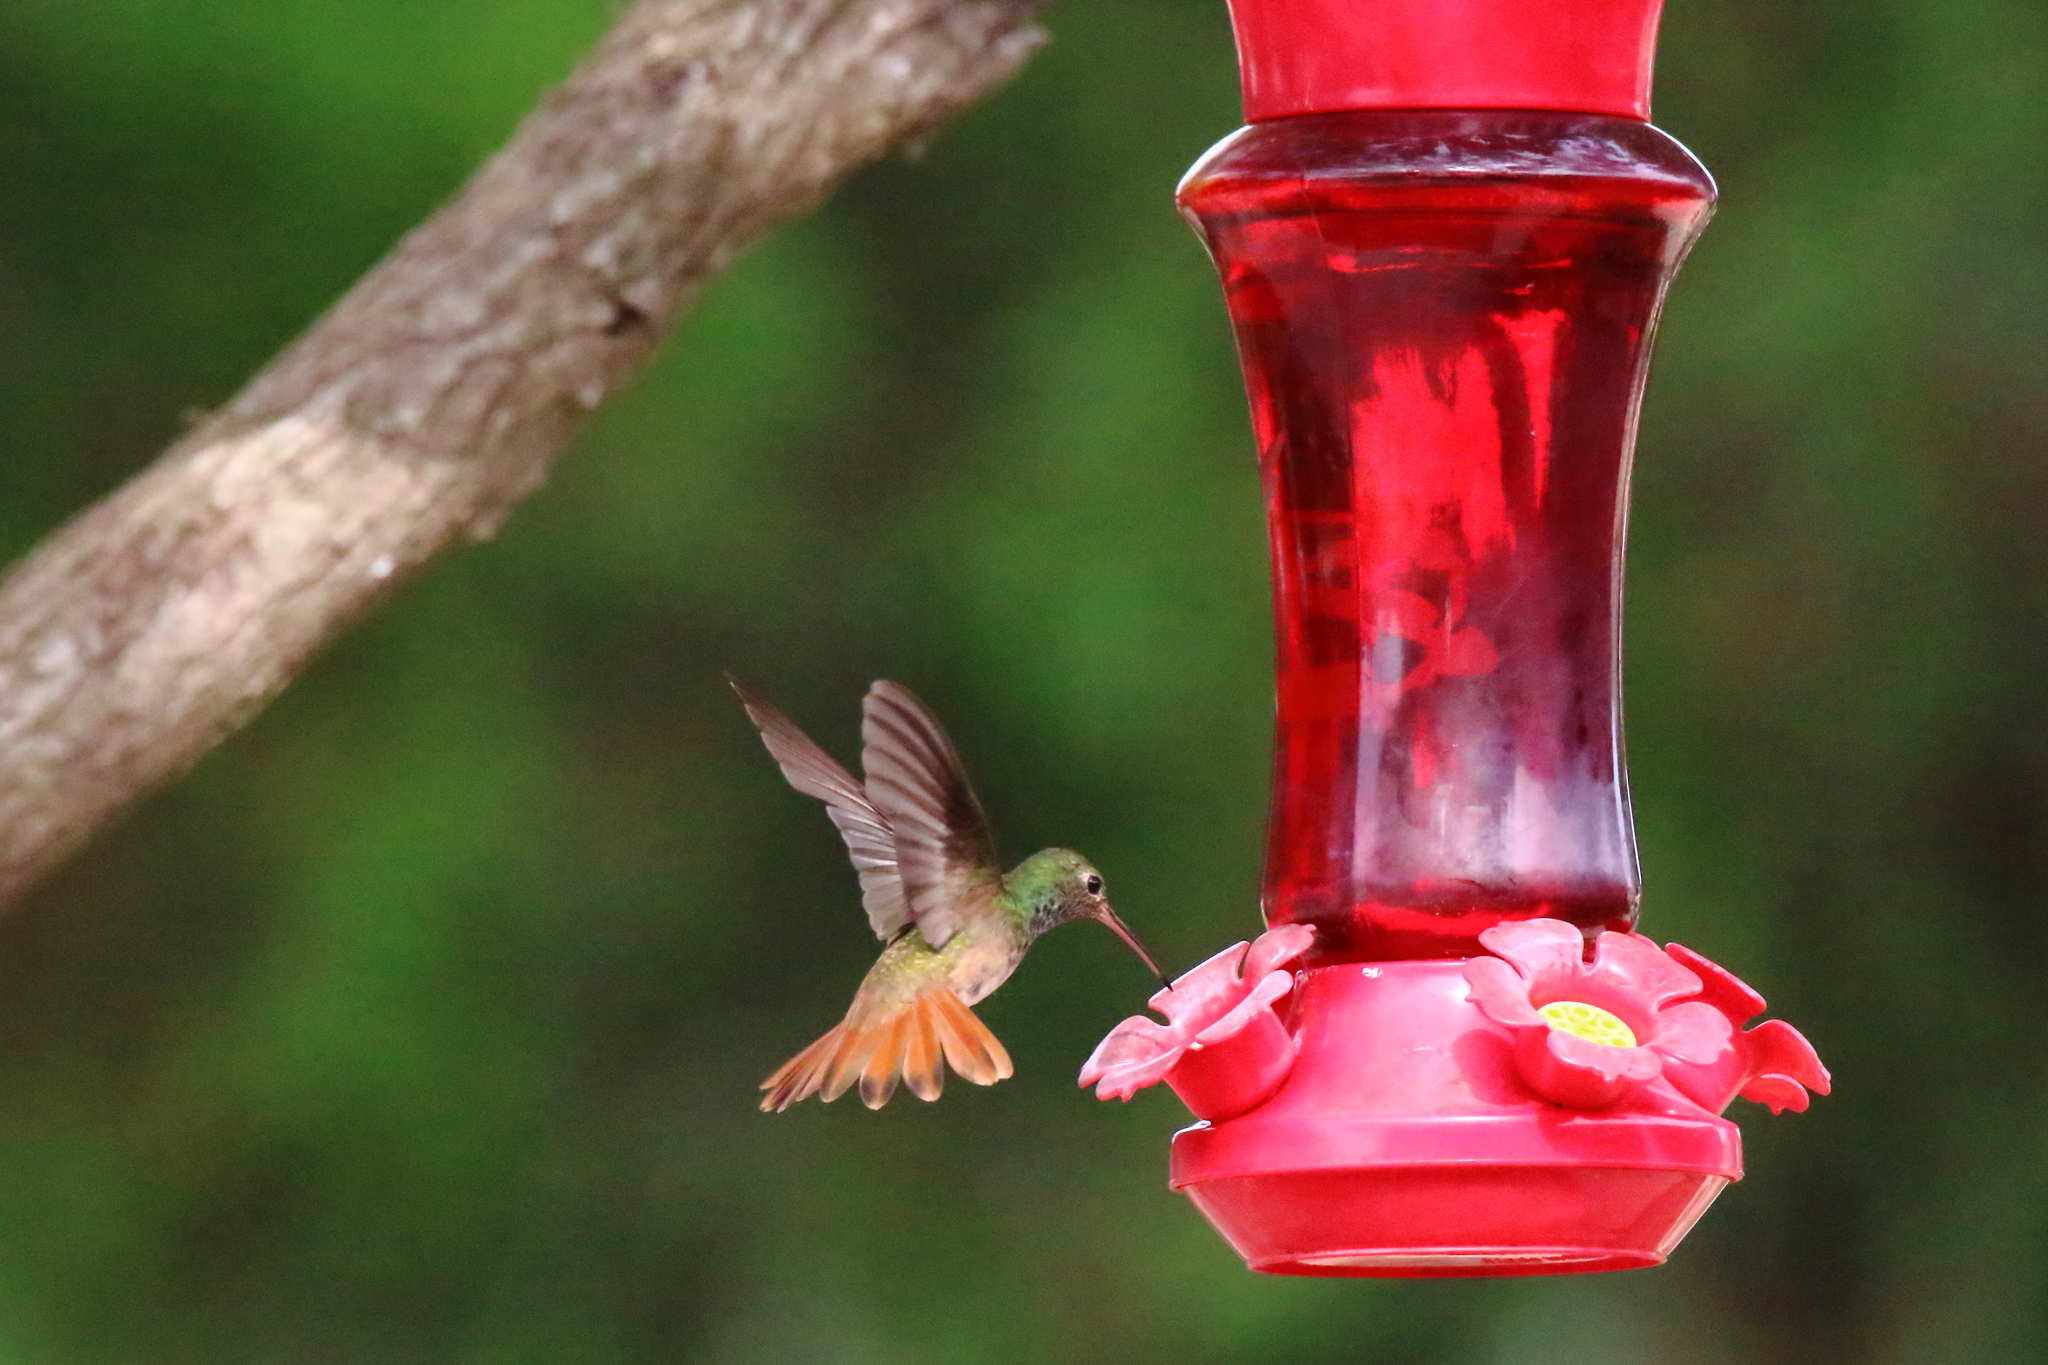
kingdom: Animalia
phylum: Chordata
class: Aves
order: Apodiformes
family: Trochilidae
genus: Amazilia
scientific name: Amazilia yucatanensis
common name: Buff-bellied hummingbird
